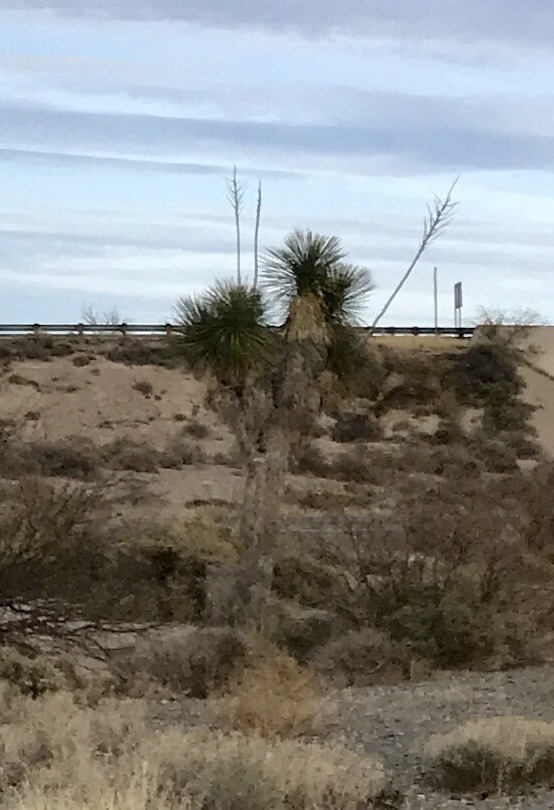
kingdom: Plantae
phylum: Tracheophyta
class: Liliopsida
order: Asparagales
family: Asparagaceae
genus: Yucca
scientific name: Yucca elata
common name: Palmella
